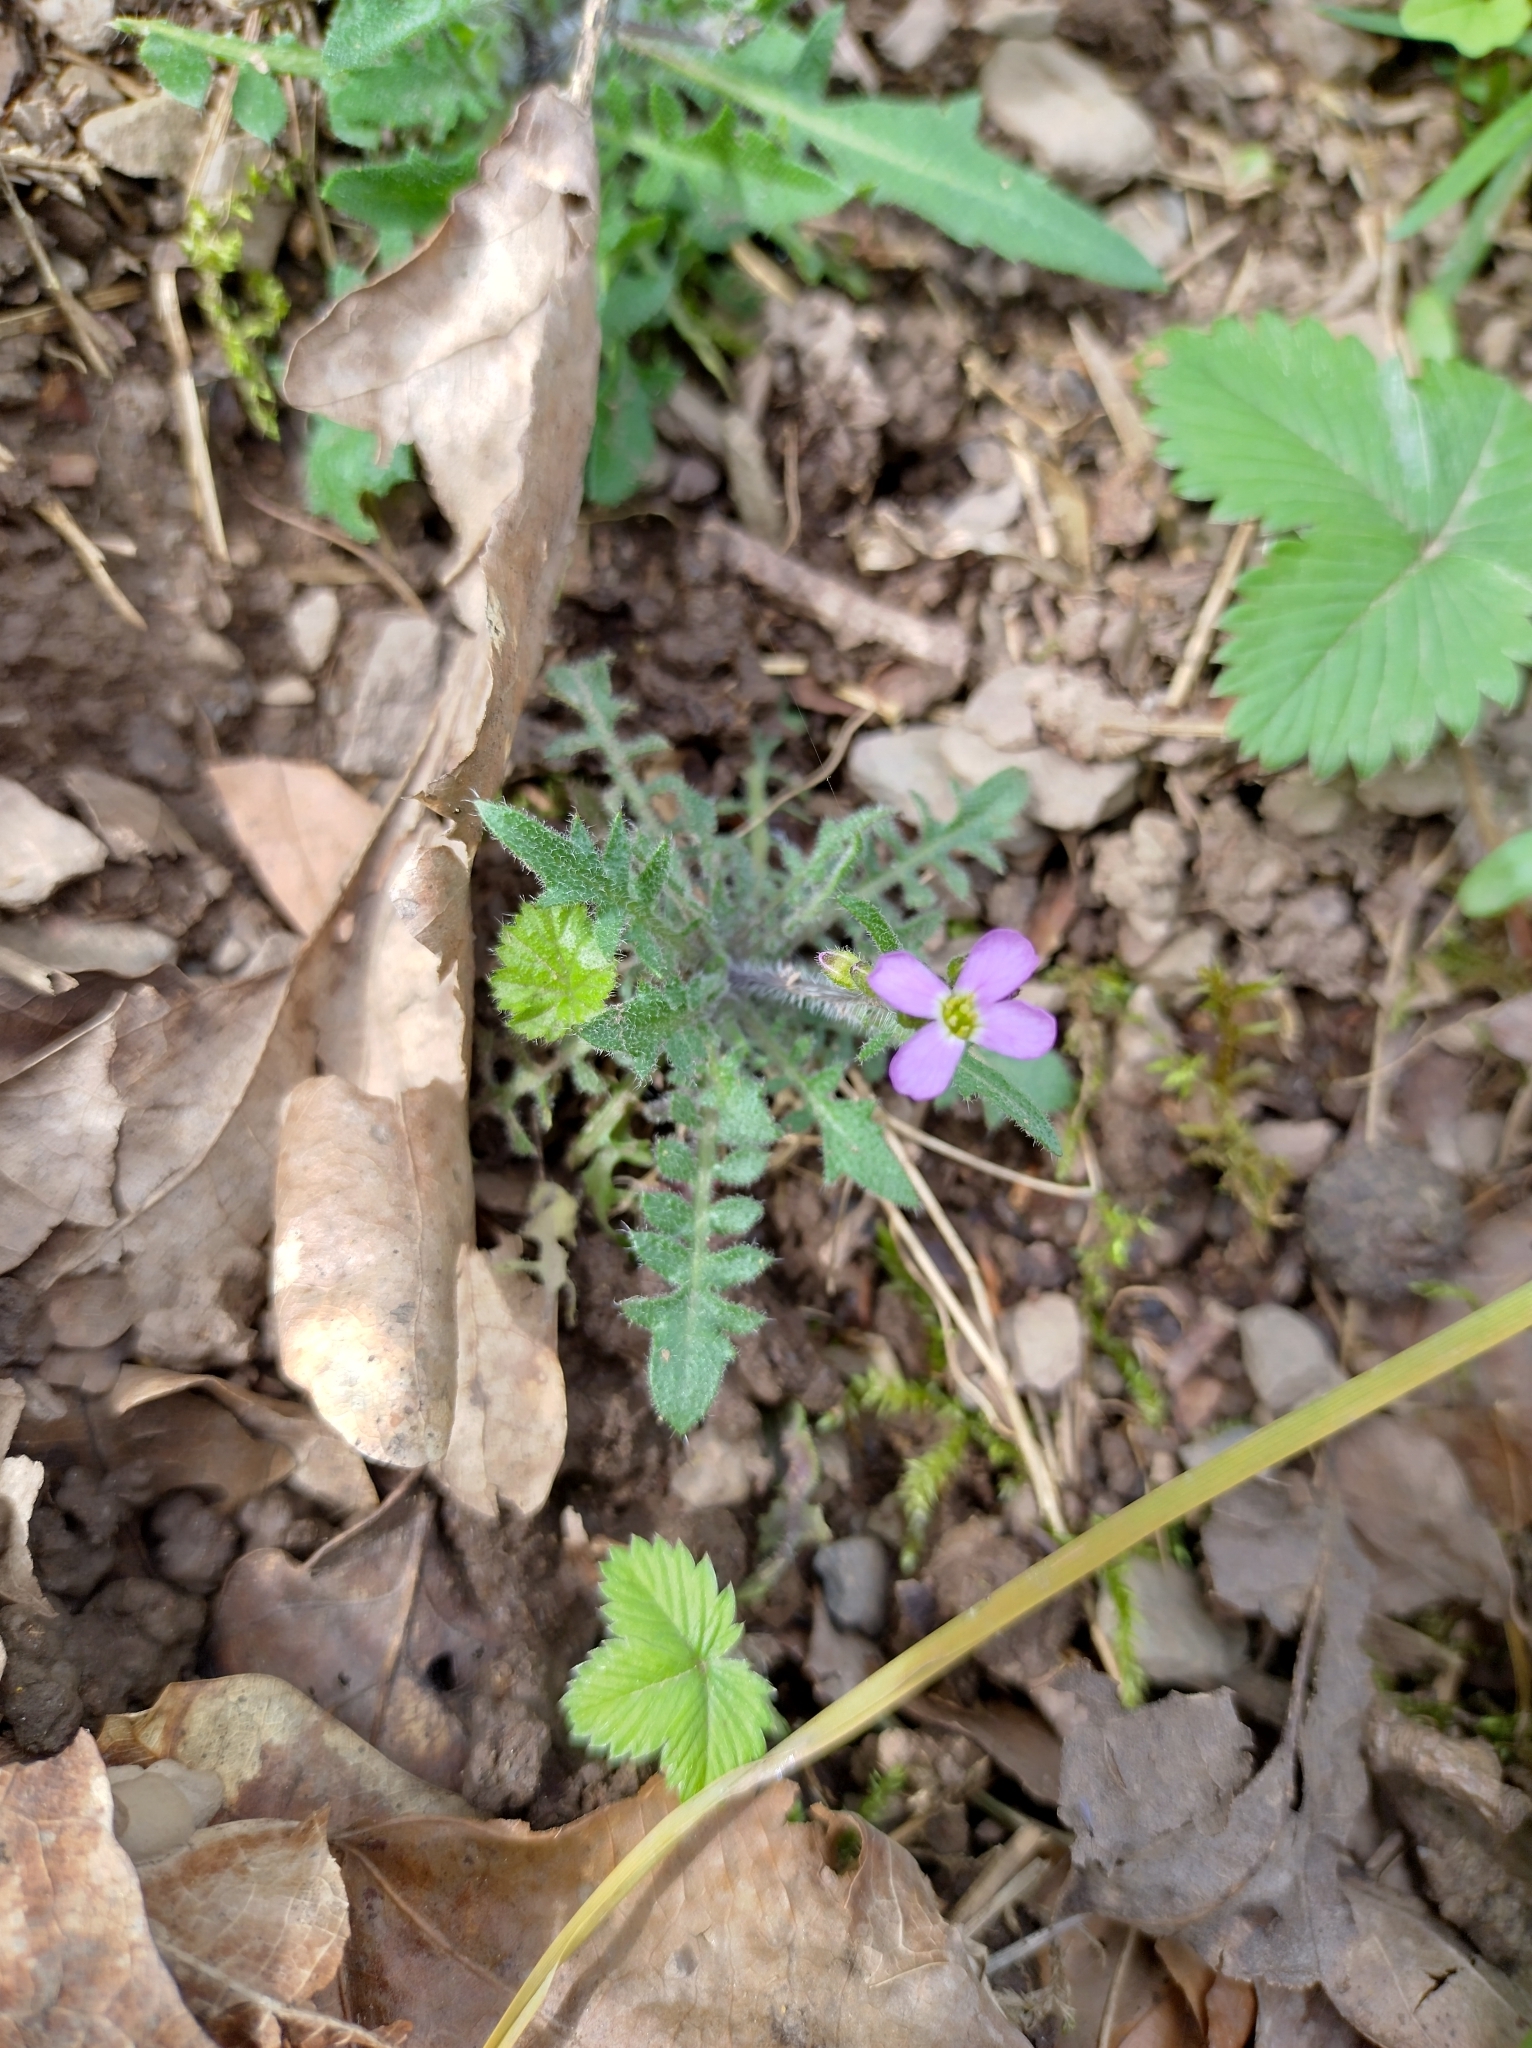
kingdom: Plantae
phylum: Tracheophyta
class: Magnoliopsida
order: Brassicales
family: Brassicaceae
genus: Arabidopsis
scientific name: Arabidopsis arenosa
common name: Sand rock-cress
